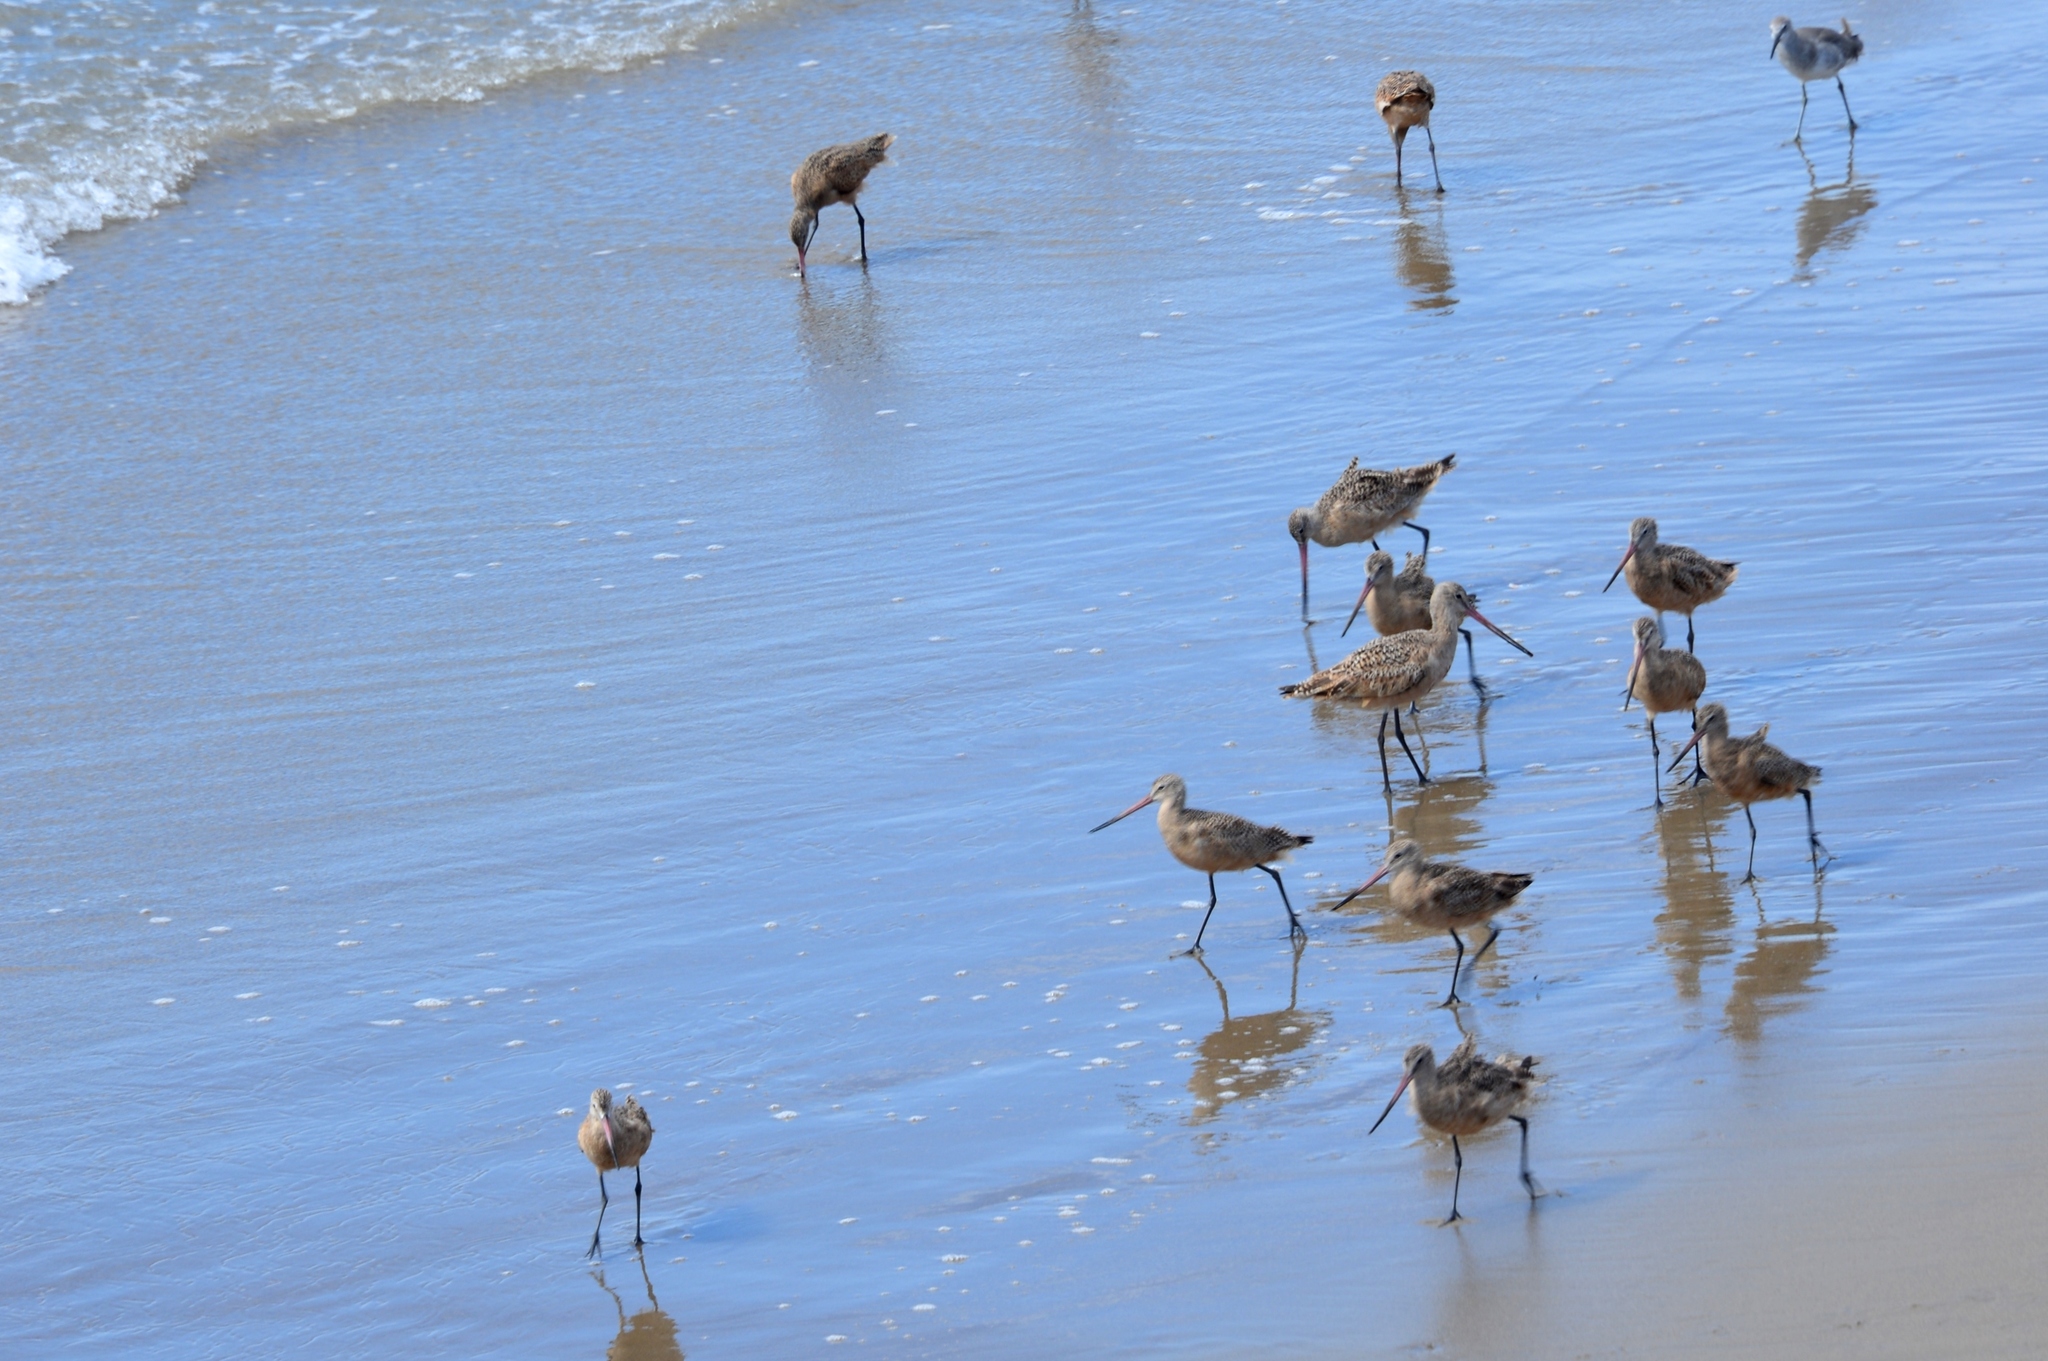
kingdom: Animalia
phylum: Chordata
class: Aves
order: Charadriiformes
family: Scolopacidae
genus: Limosa
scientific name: Limosa fedoa
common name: Marbled godwit
